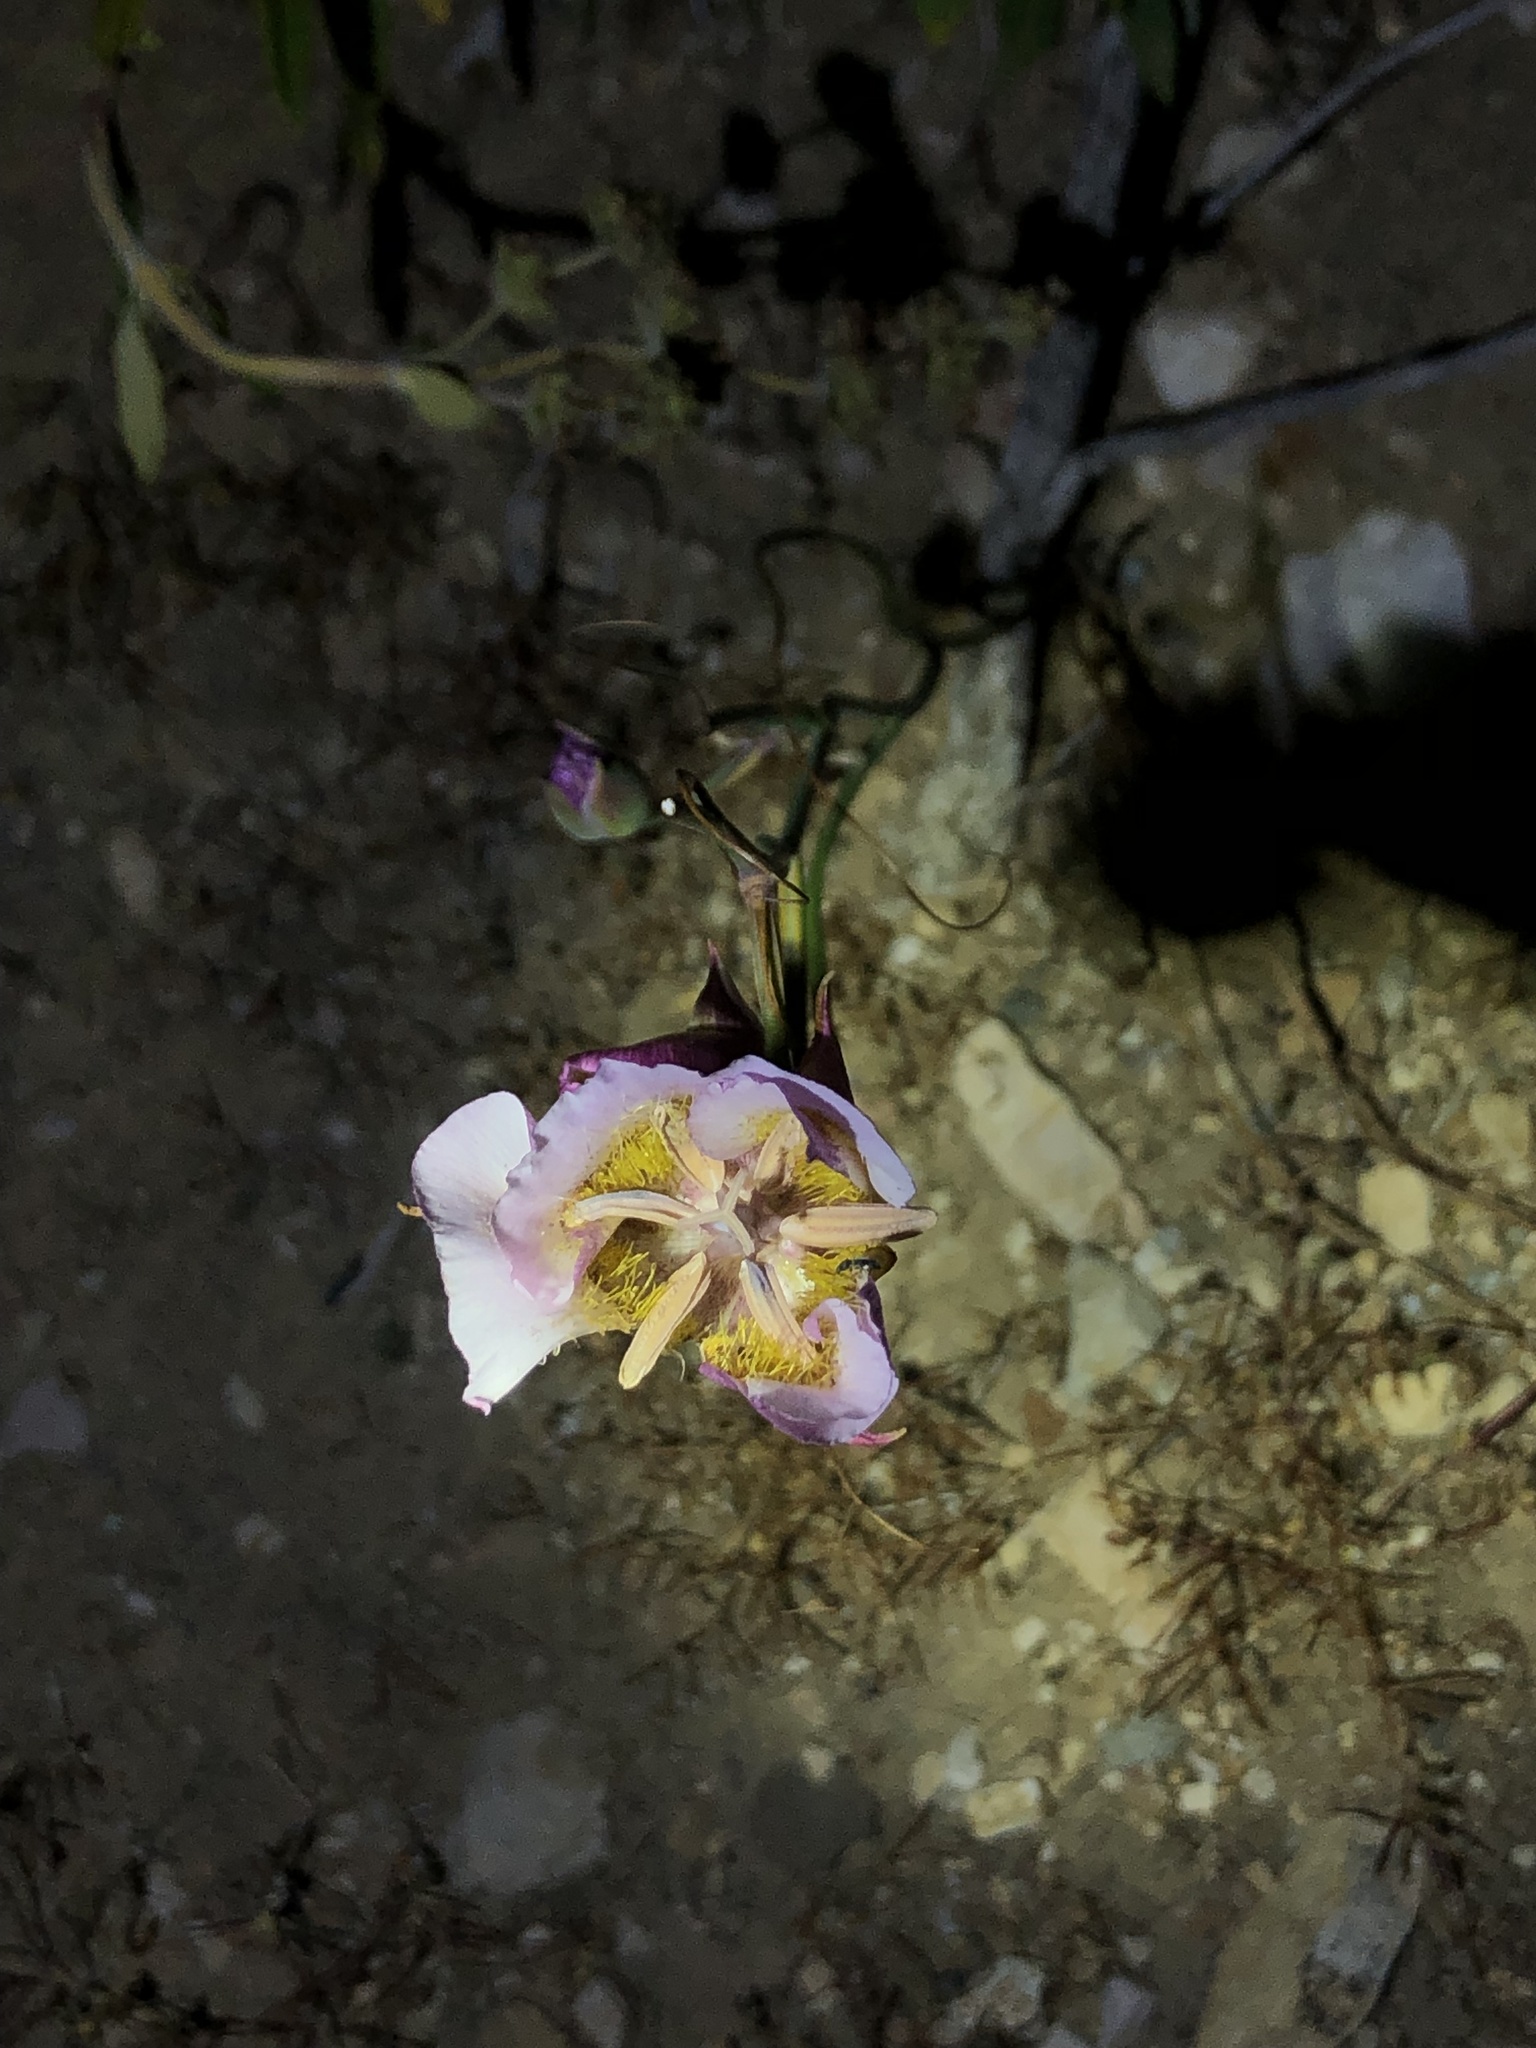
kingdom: Plantae
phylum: Tracheophyta
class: Liliopsida
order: Liliales
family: Liliaceae
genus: Calochortus
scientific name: Calochortus plummerae
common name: Plummer's mariposa-lily
